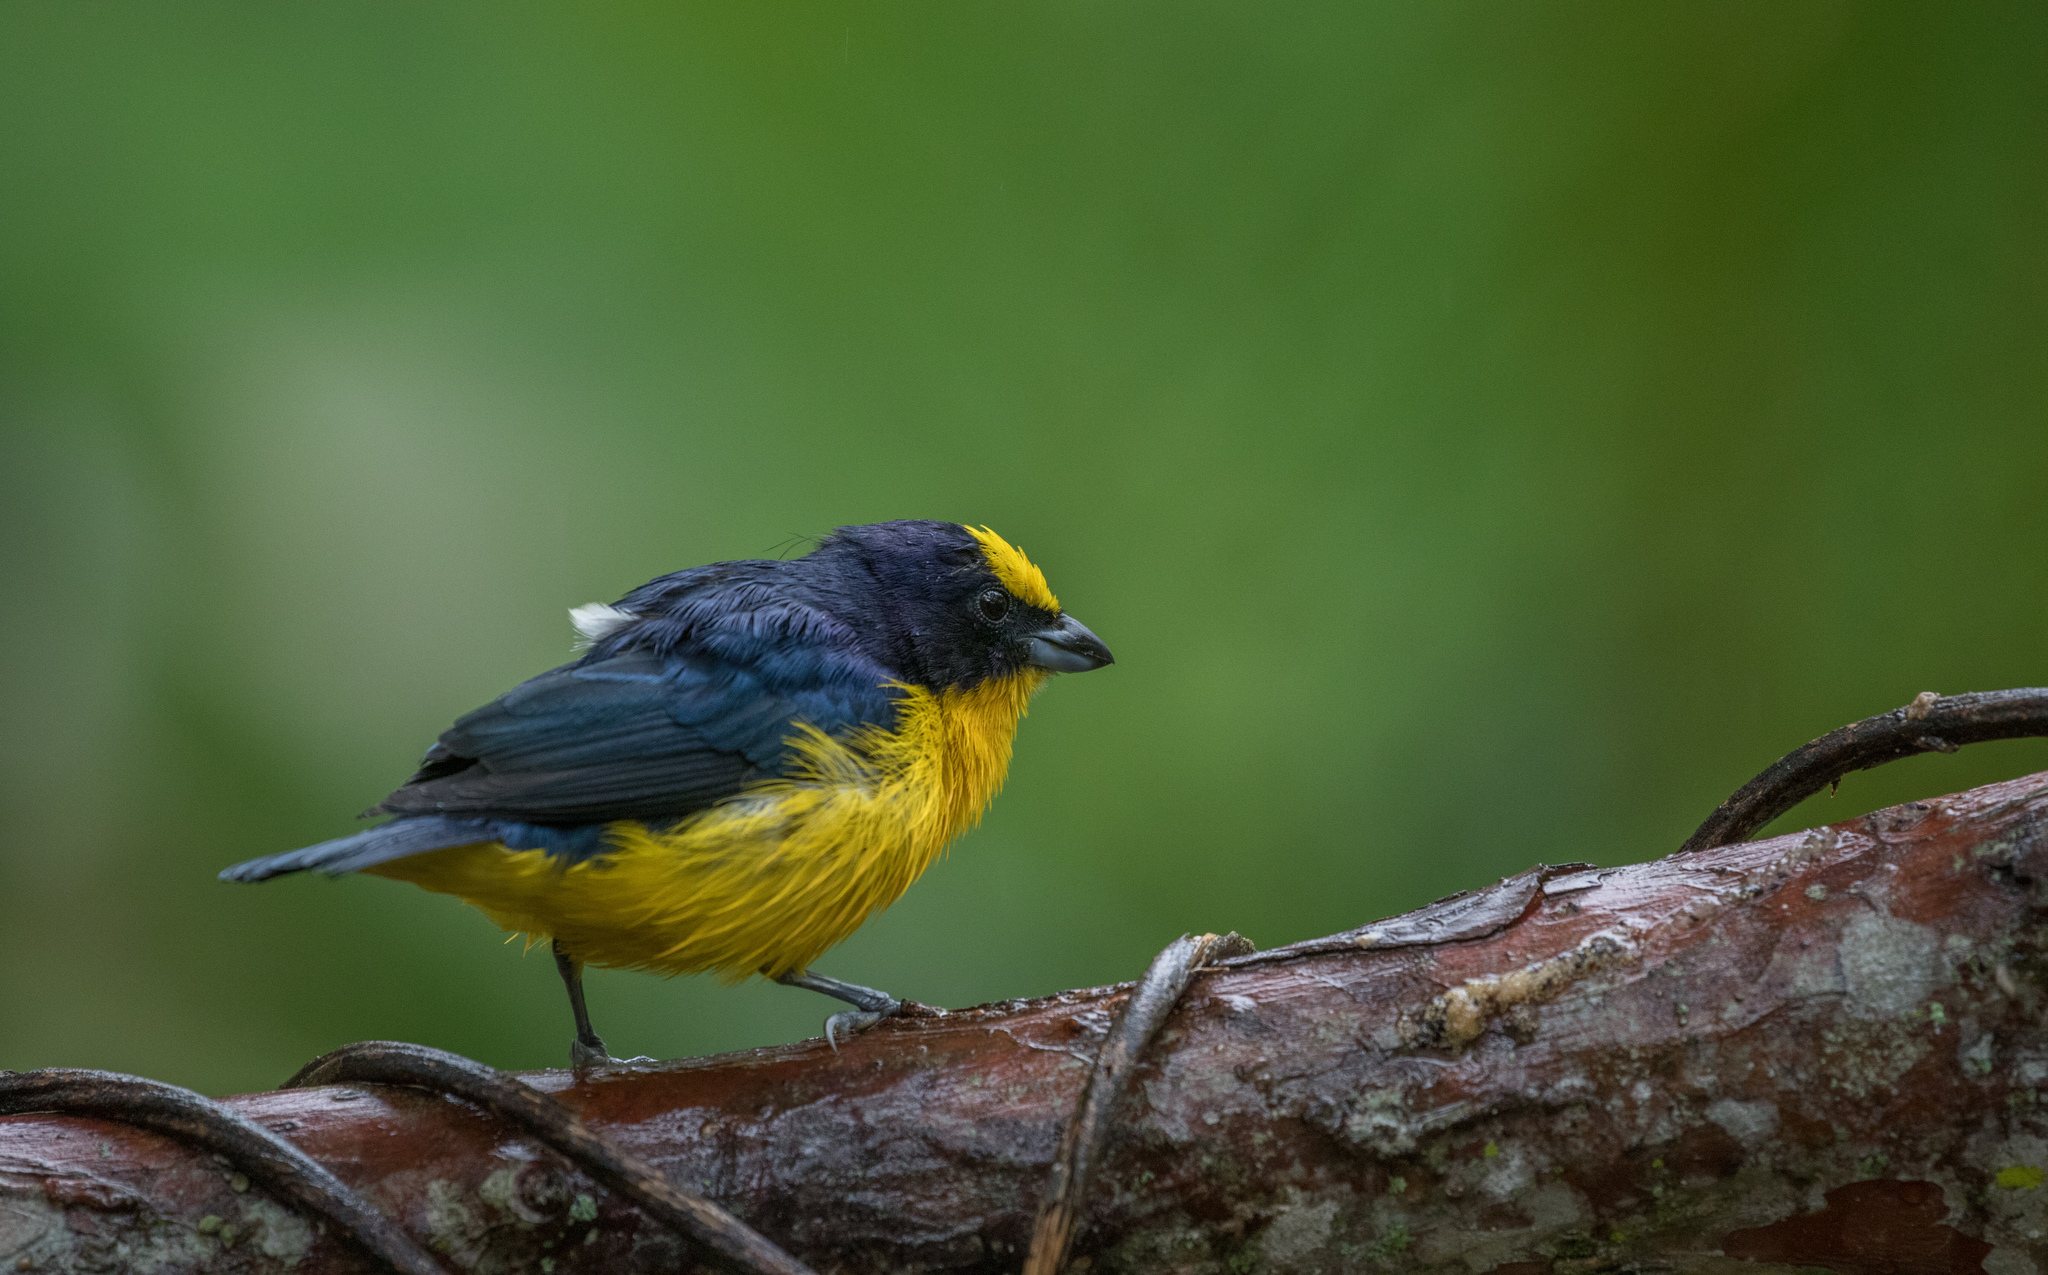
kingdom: Animalia
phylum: Chordata
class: Aves
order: Passeriformes
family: Fringillidae
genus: Euphonia
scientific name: Euphonia laniirostris
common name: Thick-billed euphonia
